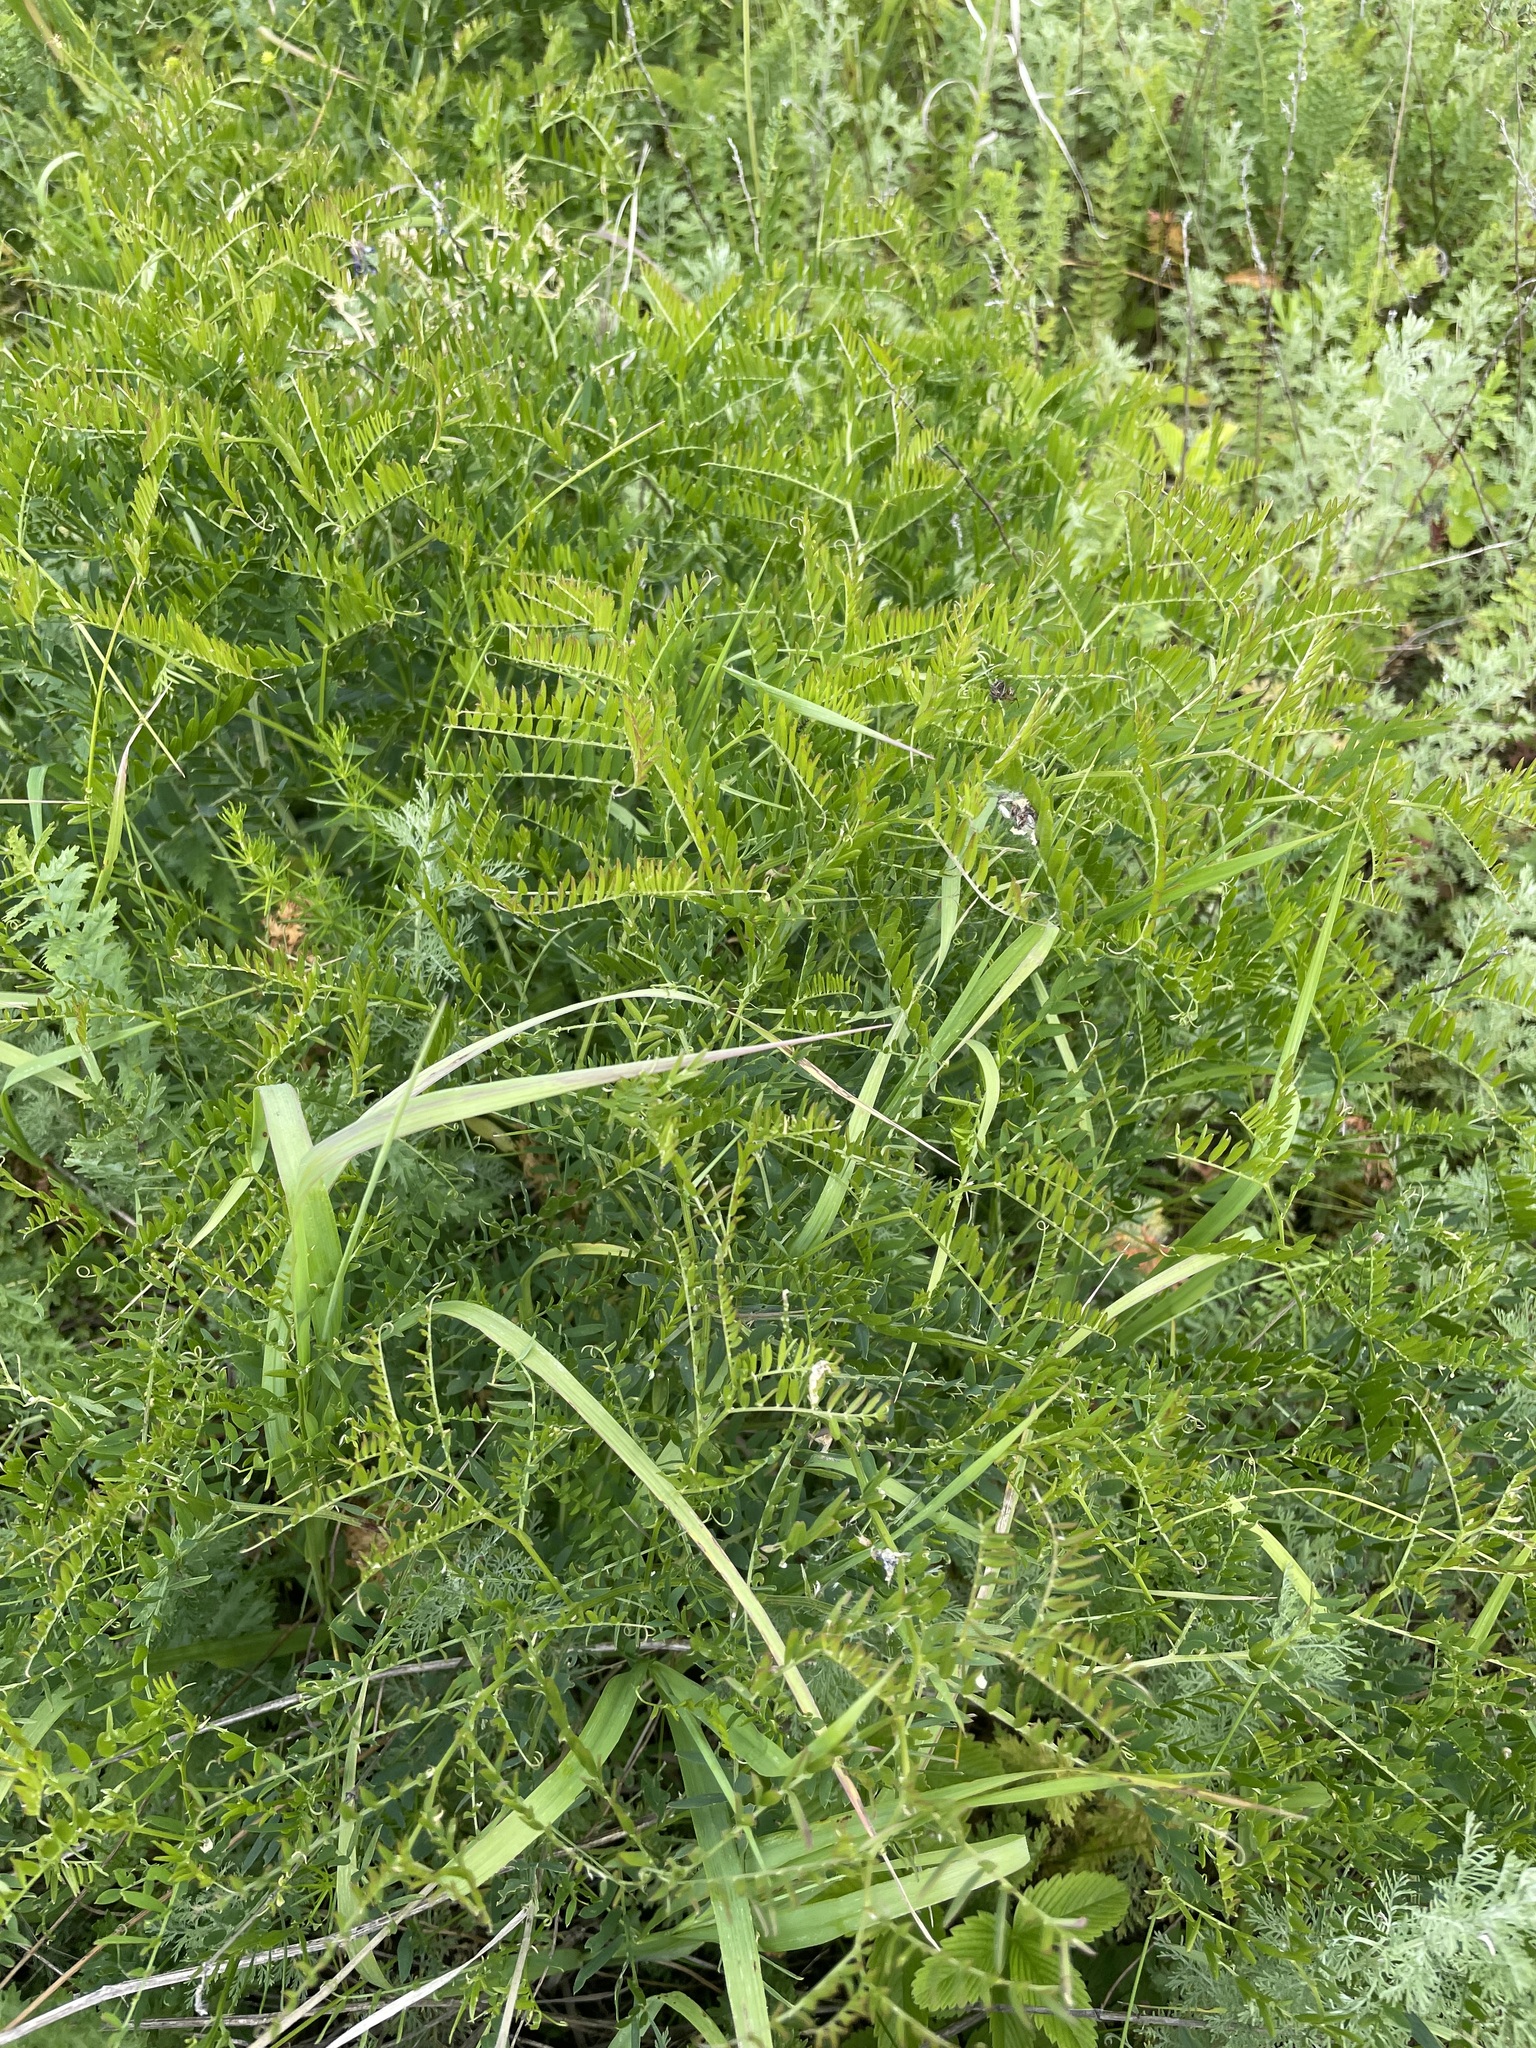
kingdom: Plantae
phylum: Tracheophyta
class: Magnoliopsida
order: Fabales
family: Fabaceae
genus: Vicia
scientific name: Vicia tenuifolia
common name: Fine-leaved vetch
